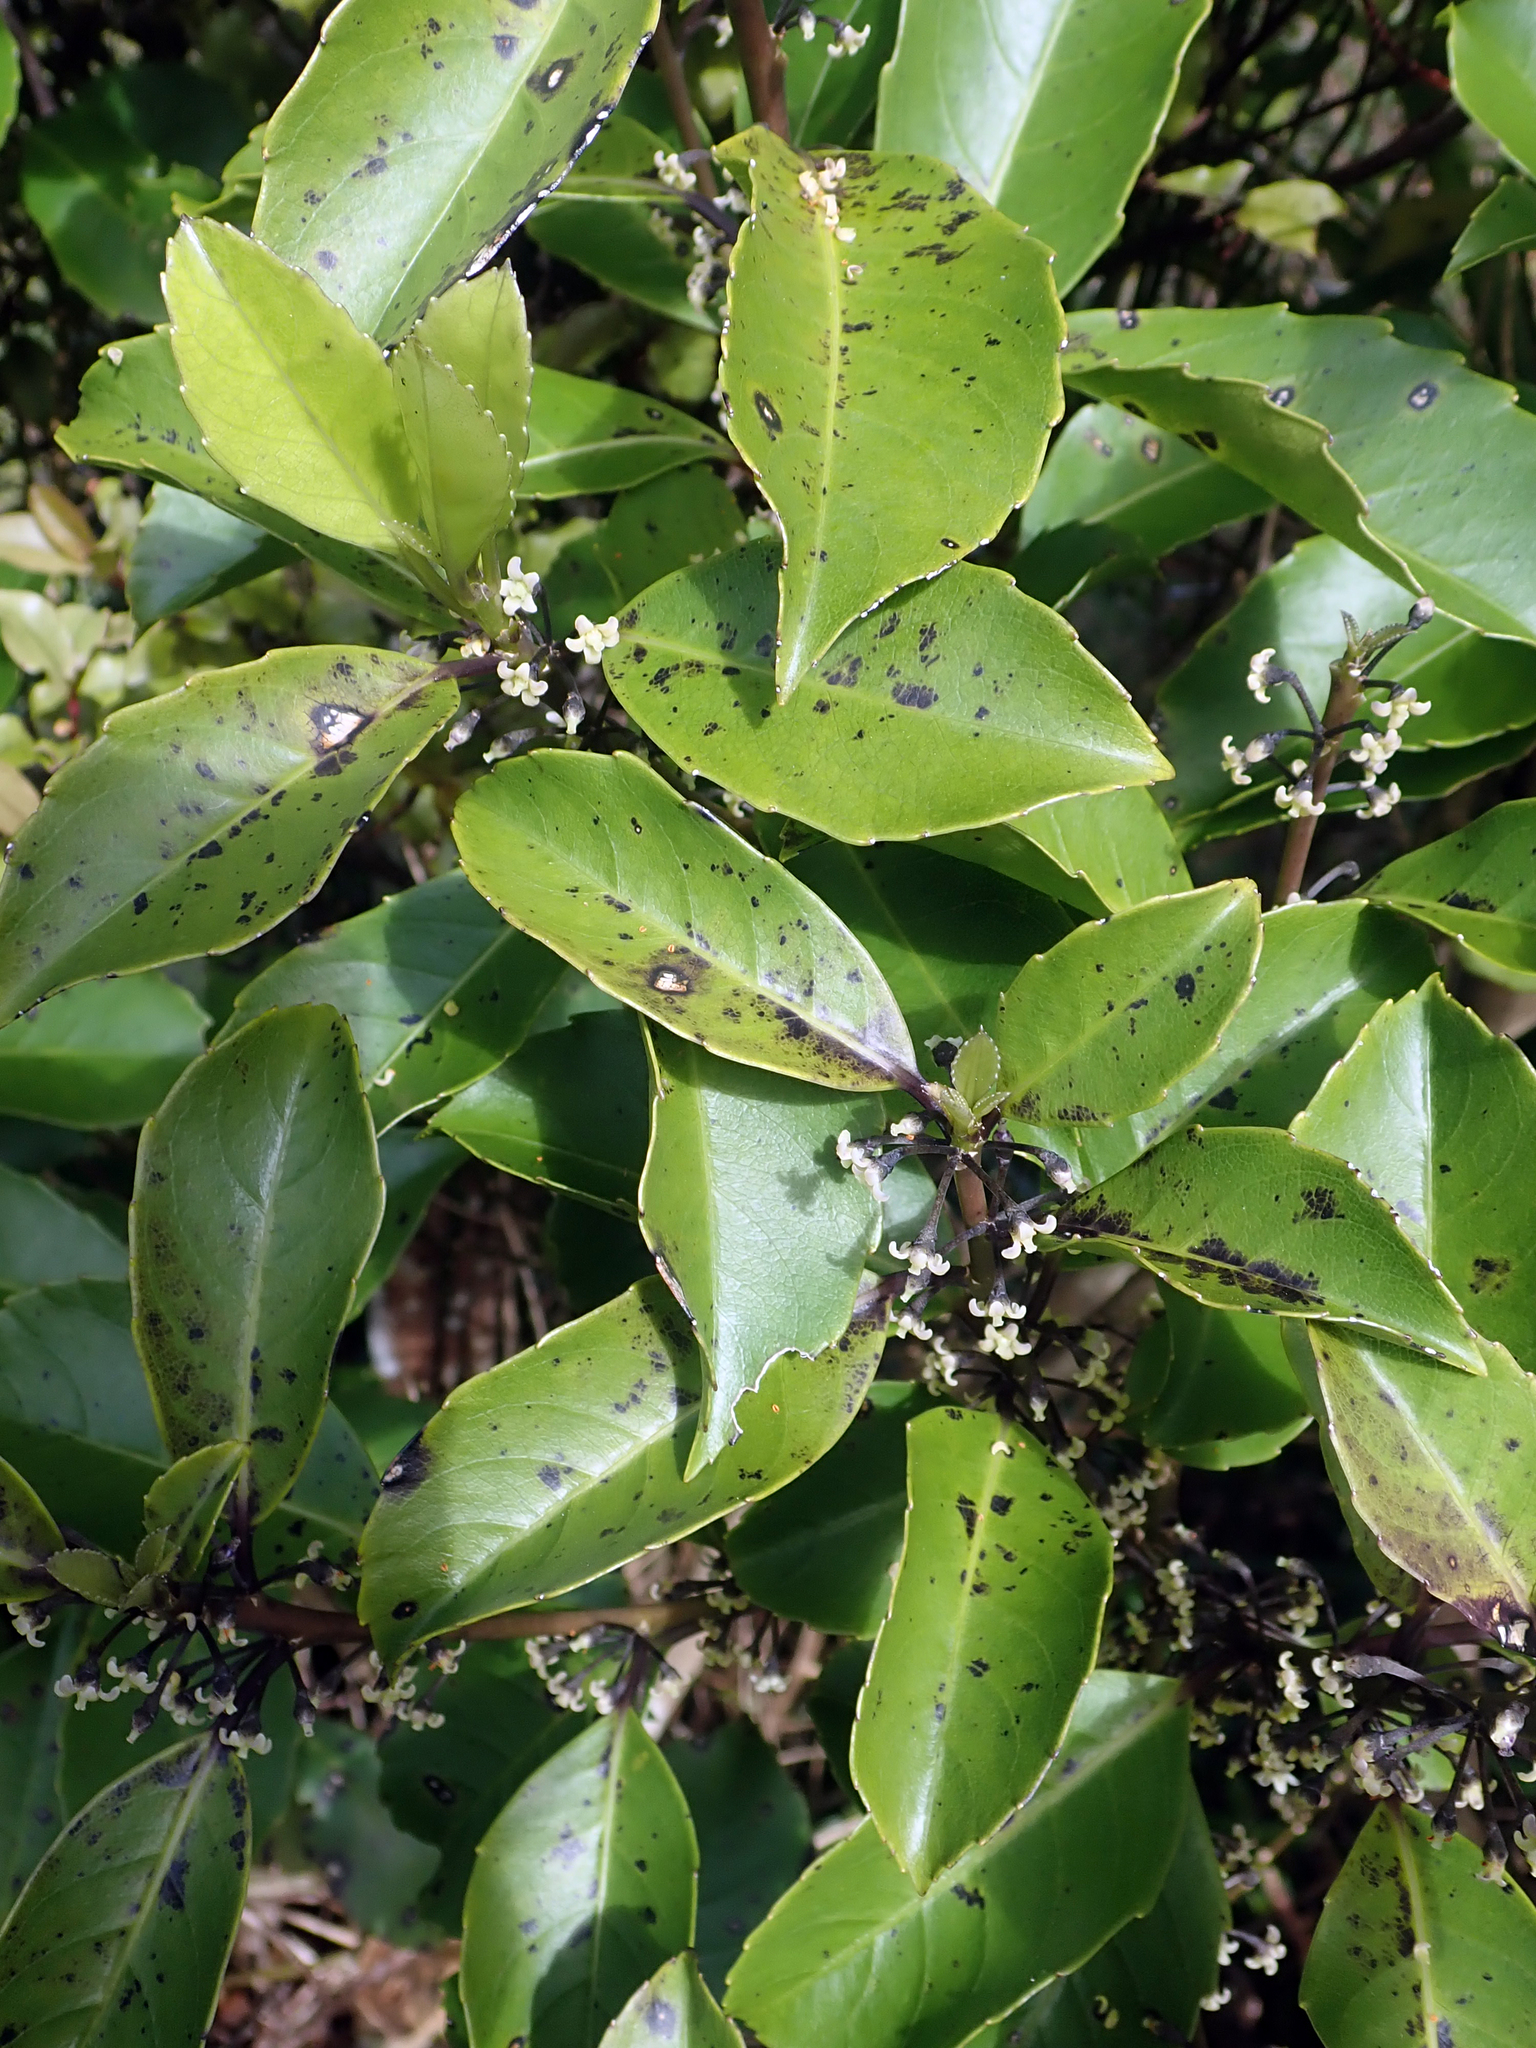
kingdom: Plantae
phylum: Tracheophyta
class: Magnoliopsida
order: Malpighiales
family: Violaceae
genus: Melicytus
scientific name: Melicytus macrophyllus
